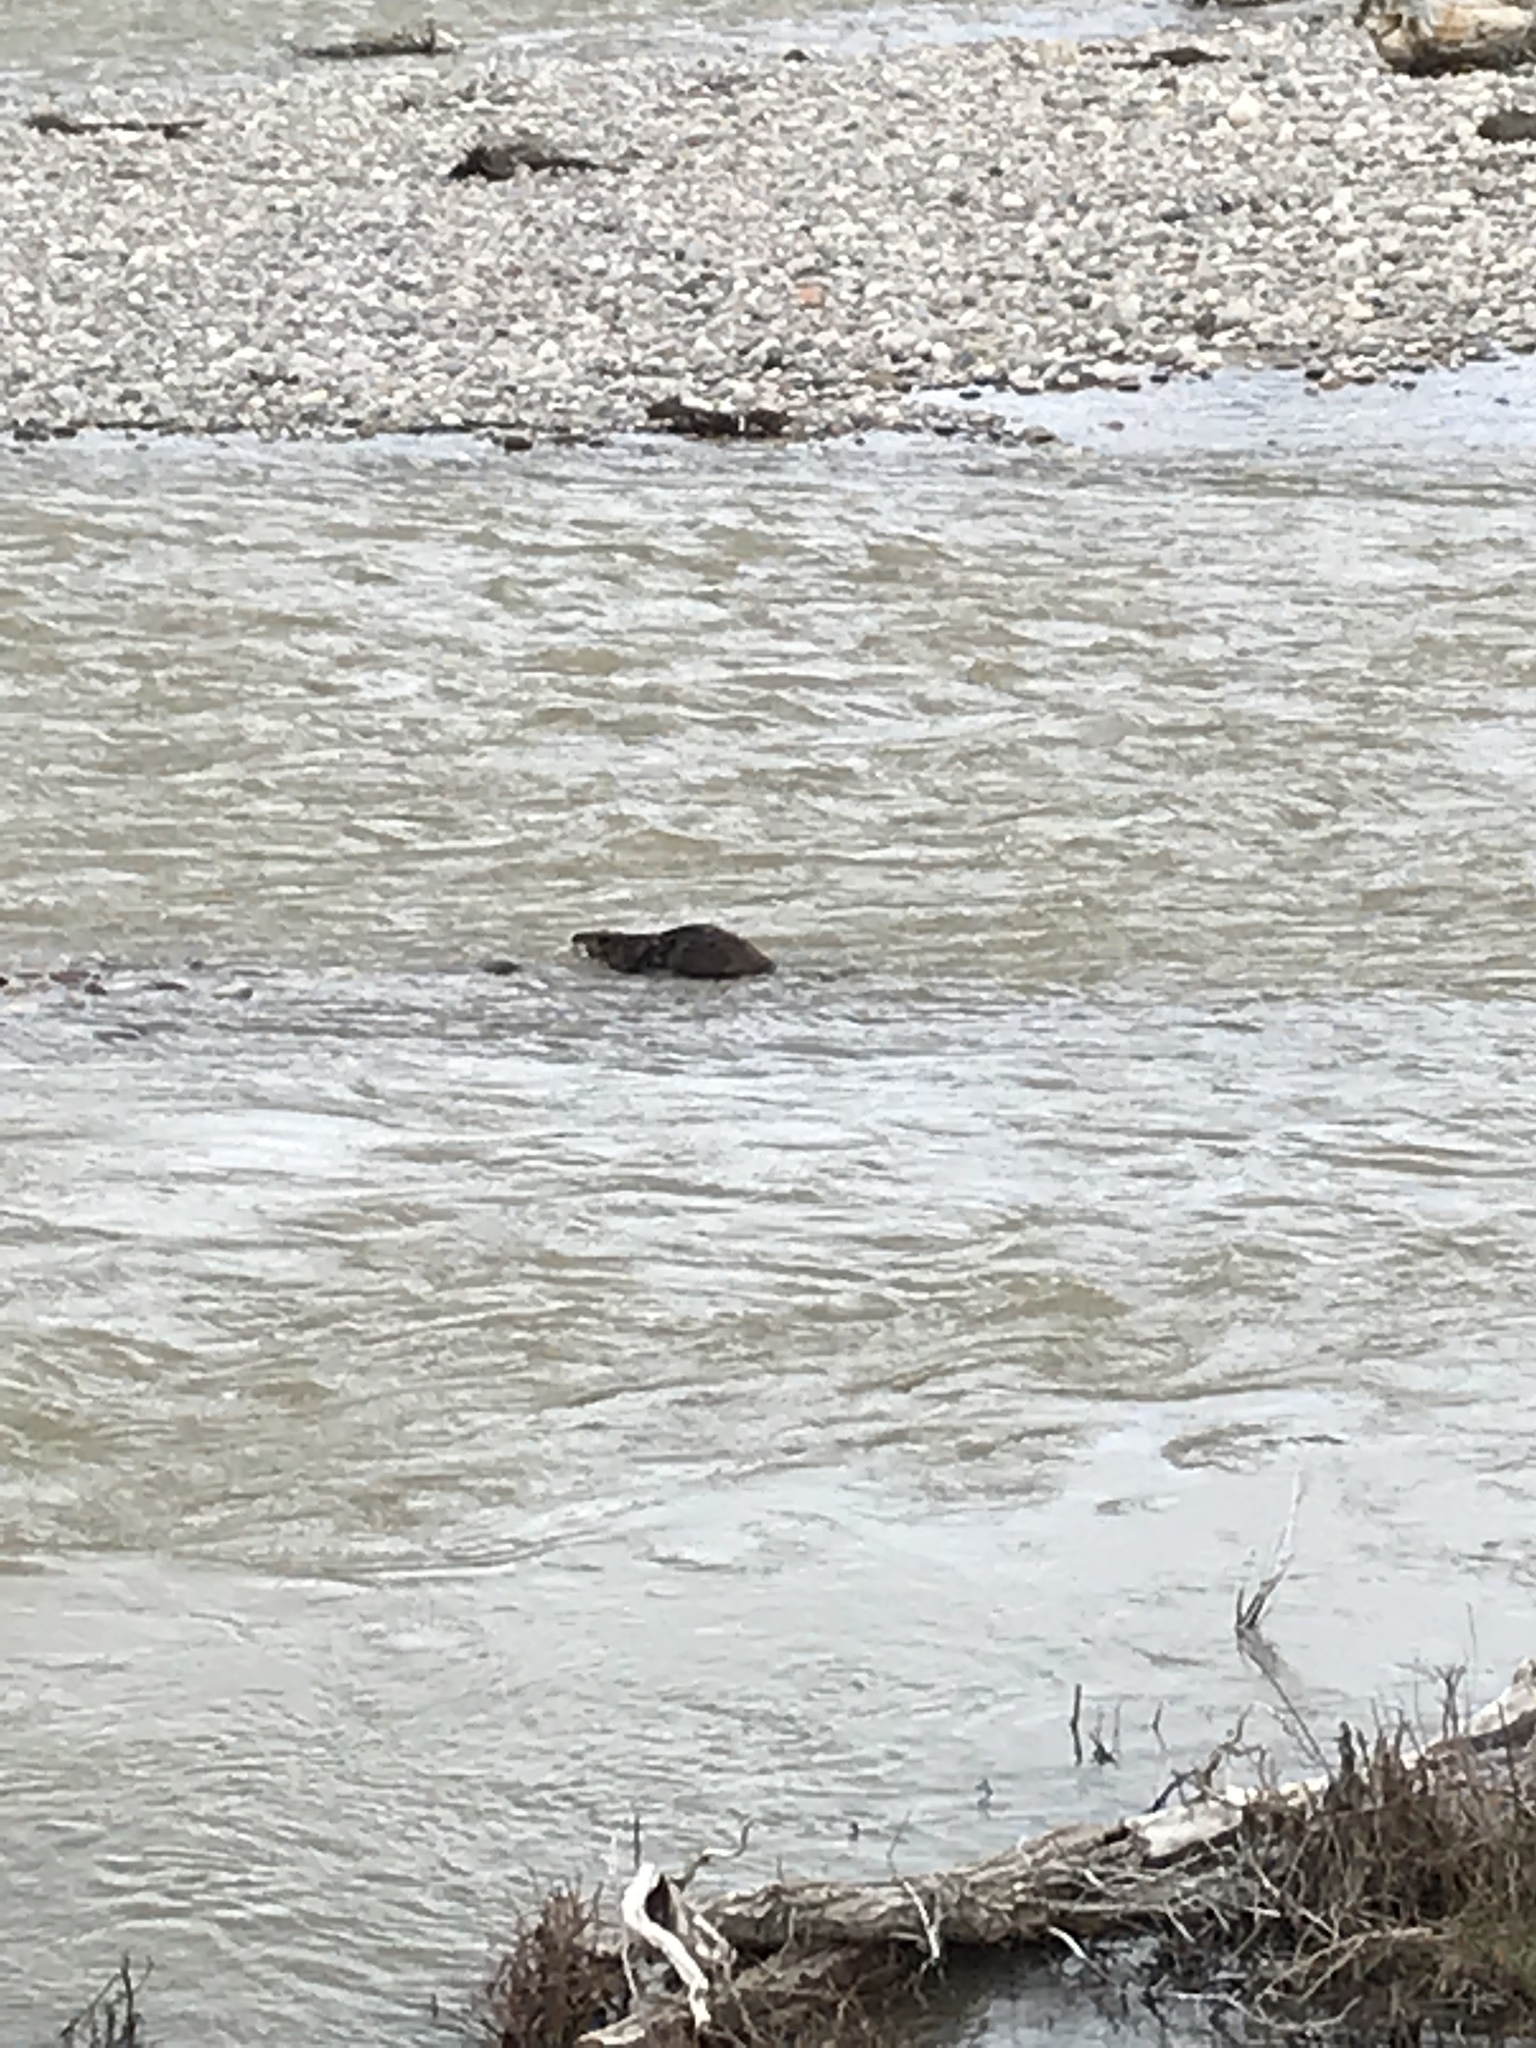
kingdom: Animalia
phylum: Chordata
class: Mammalia
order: Rodentia
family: Castoridae
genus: Castor
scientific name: Castor canadensis
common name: American beaver
